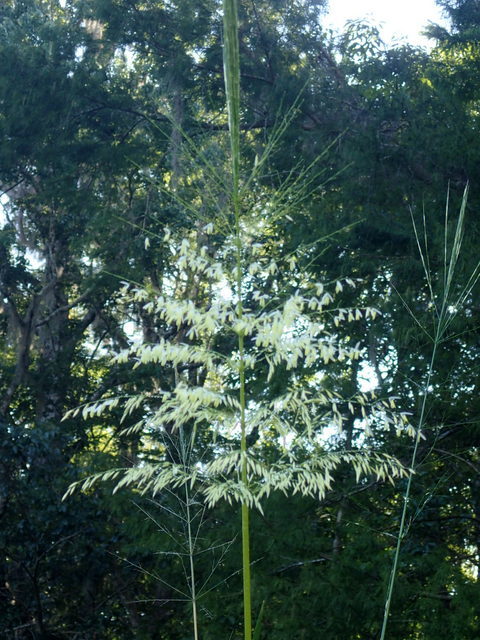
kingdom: Plantae
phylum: Tracheophyta
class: Liliopsida
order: Poales
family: Poaceae
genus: Zizania
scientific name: Zizania aquatica
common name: Annual wildrice
